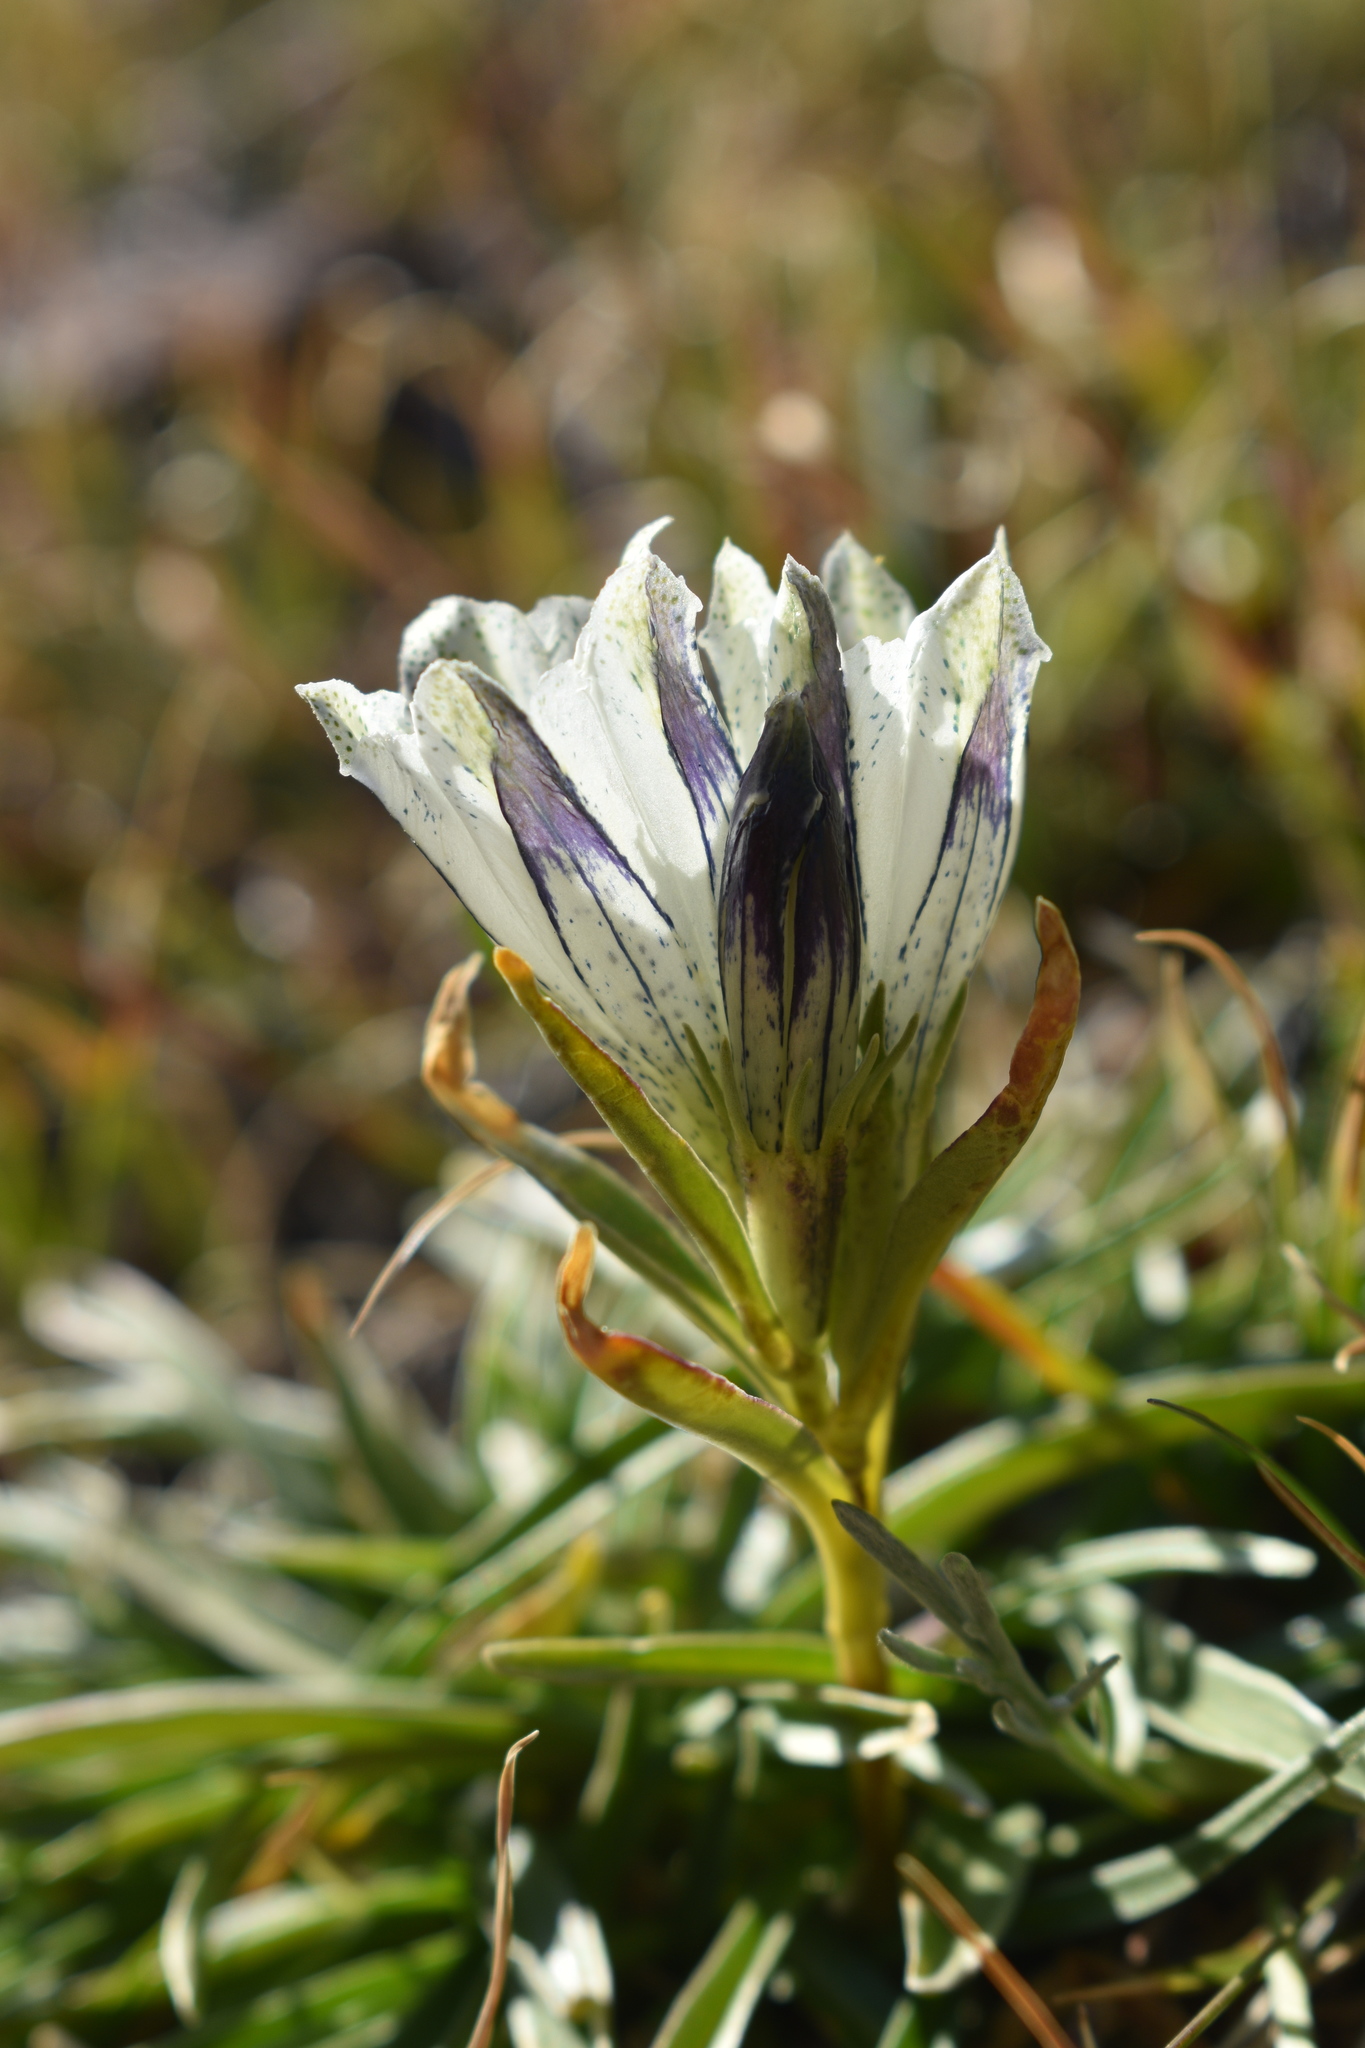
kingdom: Plantae
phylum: Tracheophyta
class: Magnoliopsida
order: Gentianales
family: Gentianaceae
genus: Gentiana
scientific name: Gentiana algida
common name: Arctic gentian
